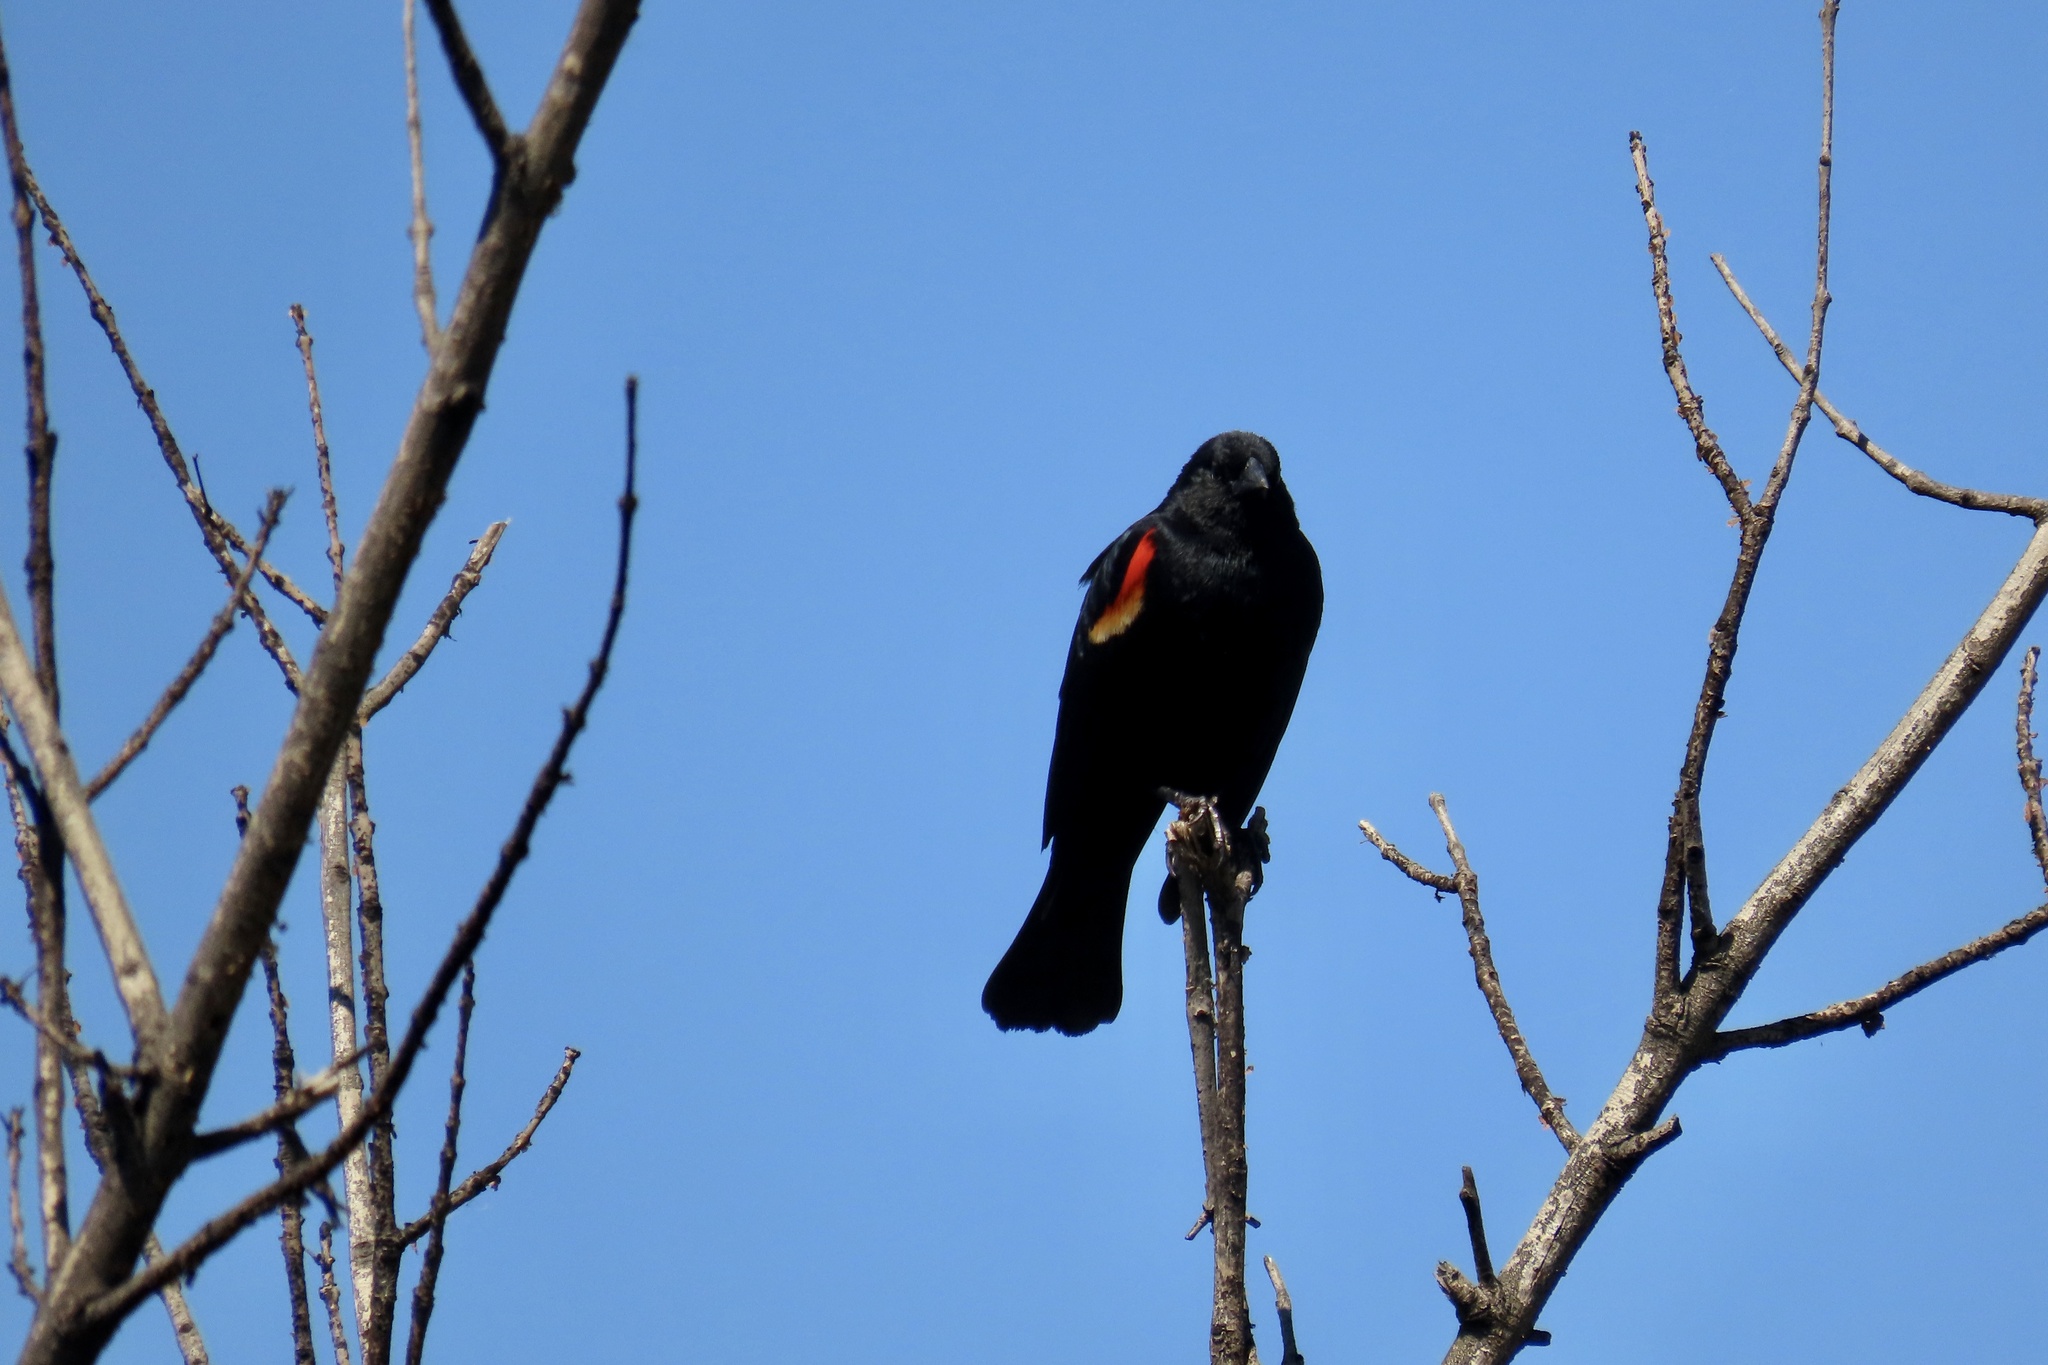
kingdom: Animalia
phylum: Chordata
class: Aves
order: Passeriformes
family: Icteridae
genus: Agelaius
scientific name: Agelaius phoeniceus
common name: Red-winged blackbird
